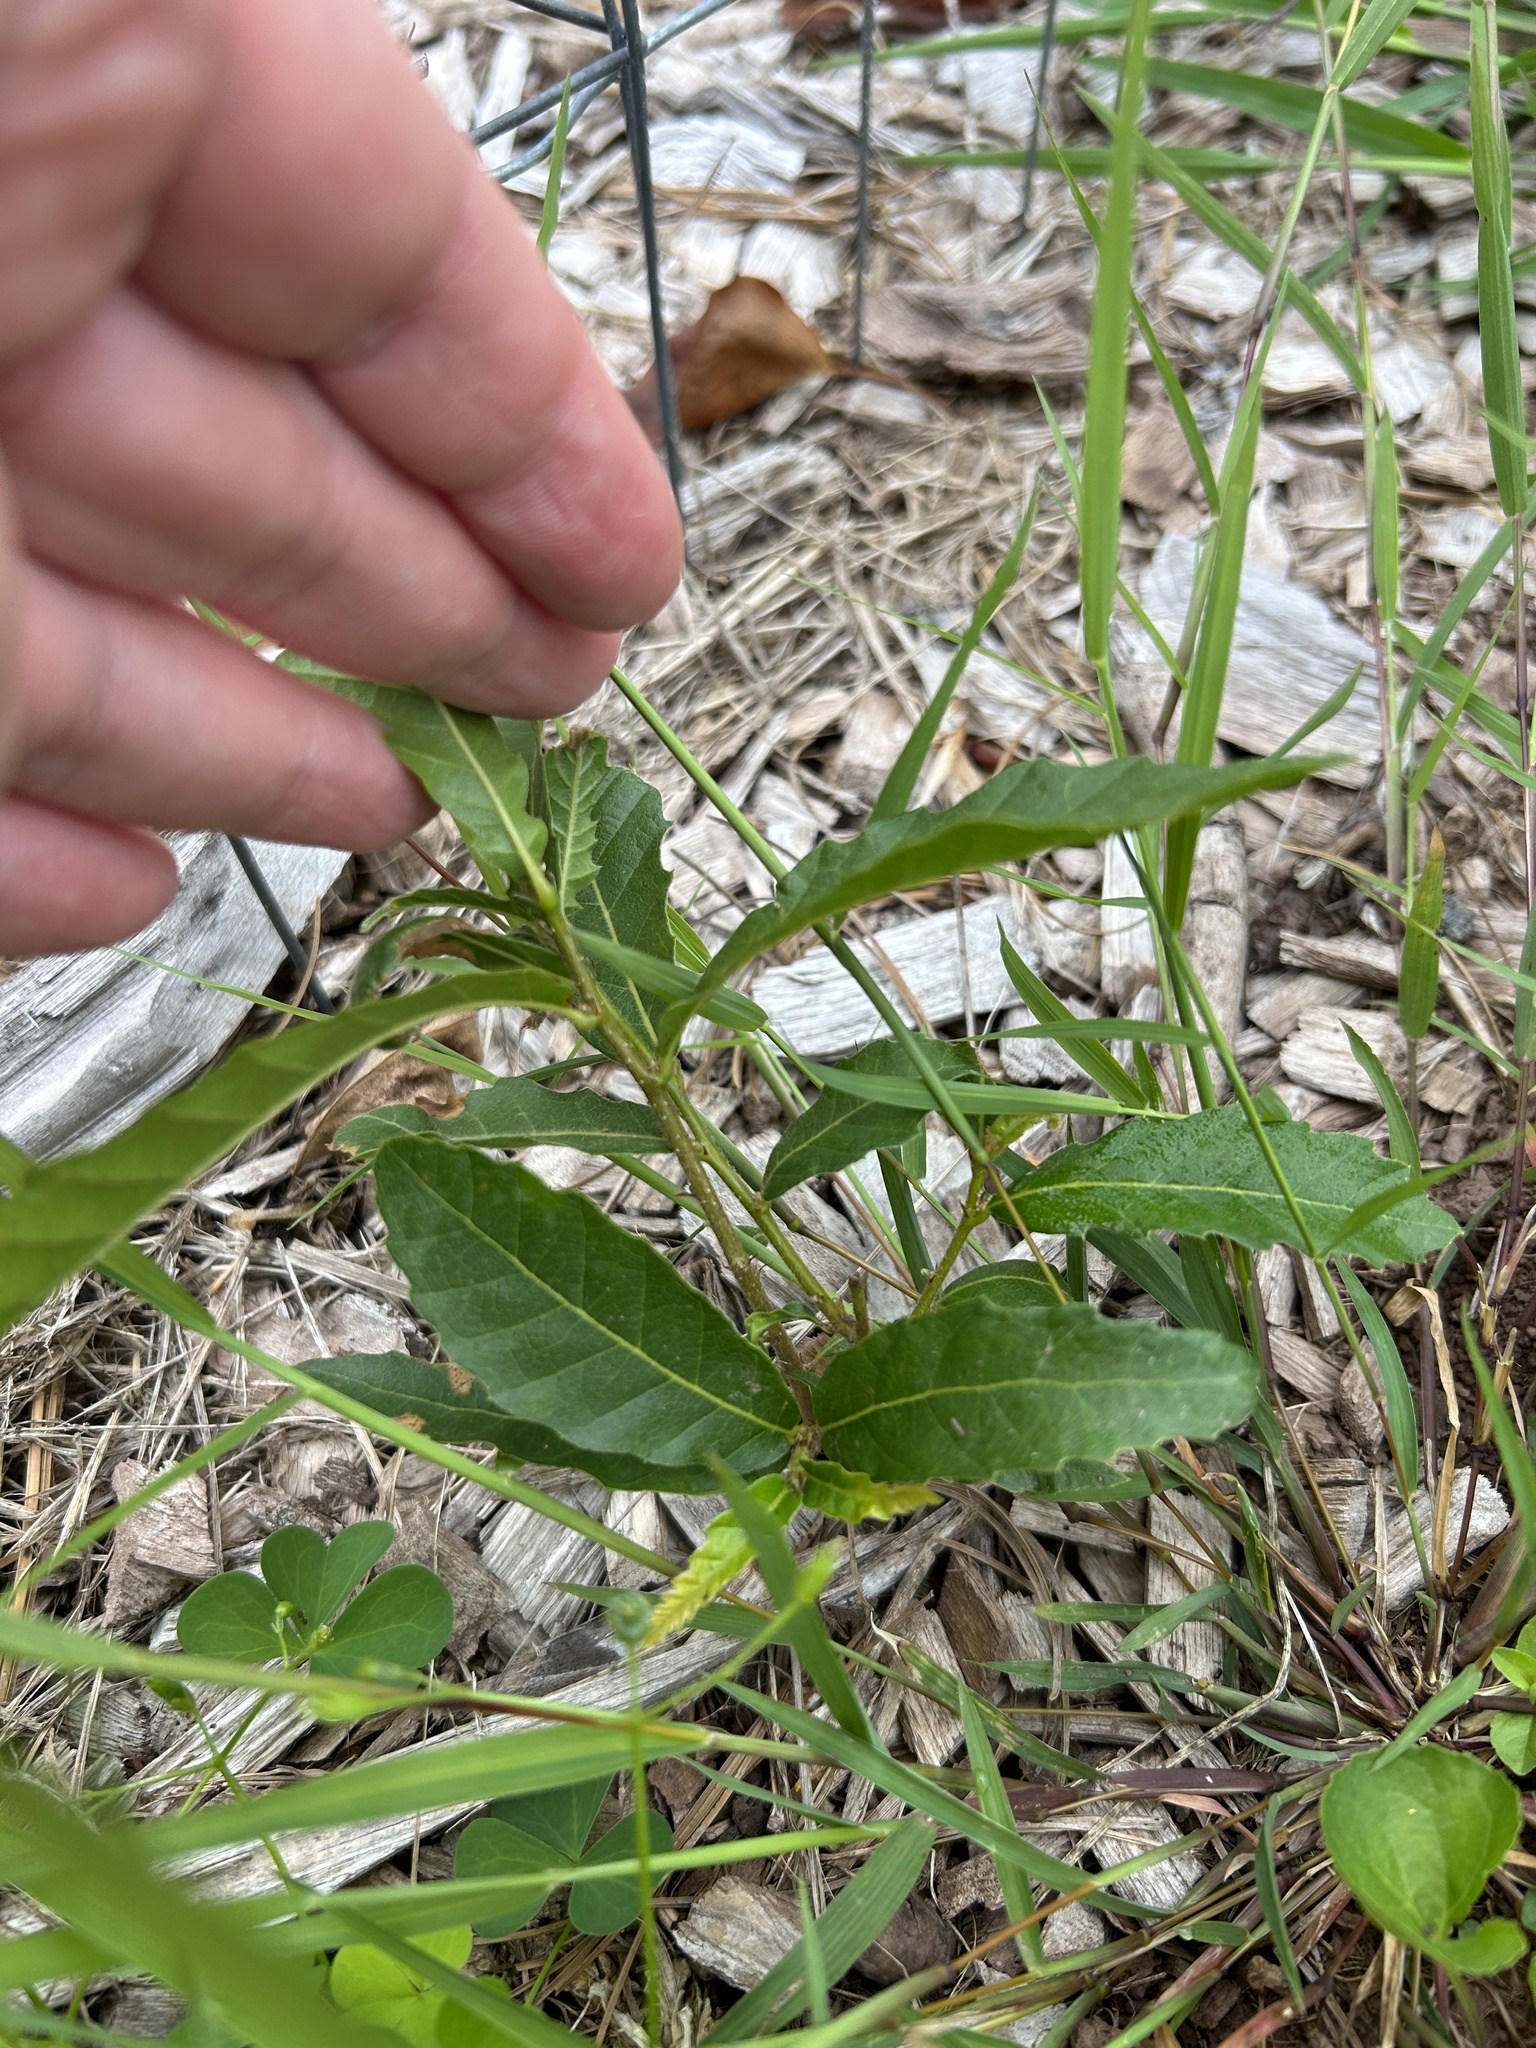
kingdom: Plantae
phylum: Tracheophyta
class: Magnoliopsida
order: Fagales
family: Fagaceae
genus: Quercus
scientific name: Quercus acutissima
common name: Sawtooth oak
